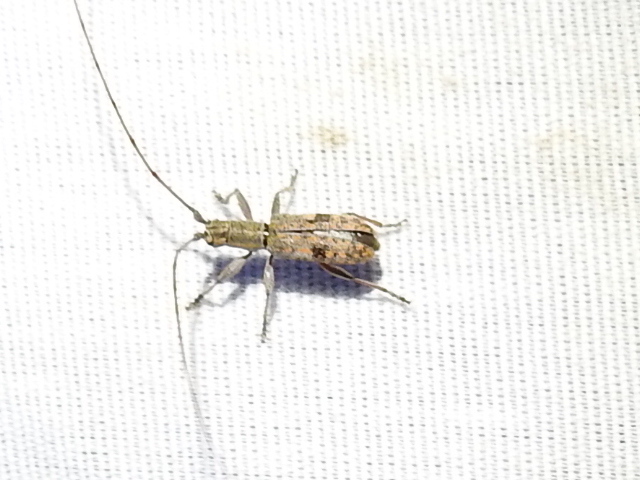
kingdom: Animalia
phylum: Arthropoda
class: Insecta
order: Coleoptera
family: Cerambycidae
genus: Dorcaschema
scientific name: Dorcaschema alternatum
